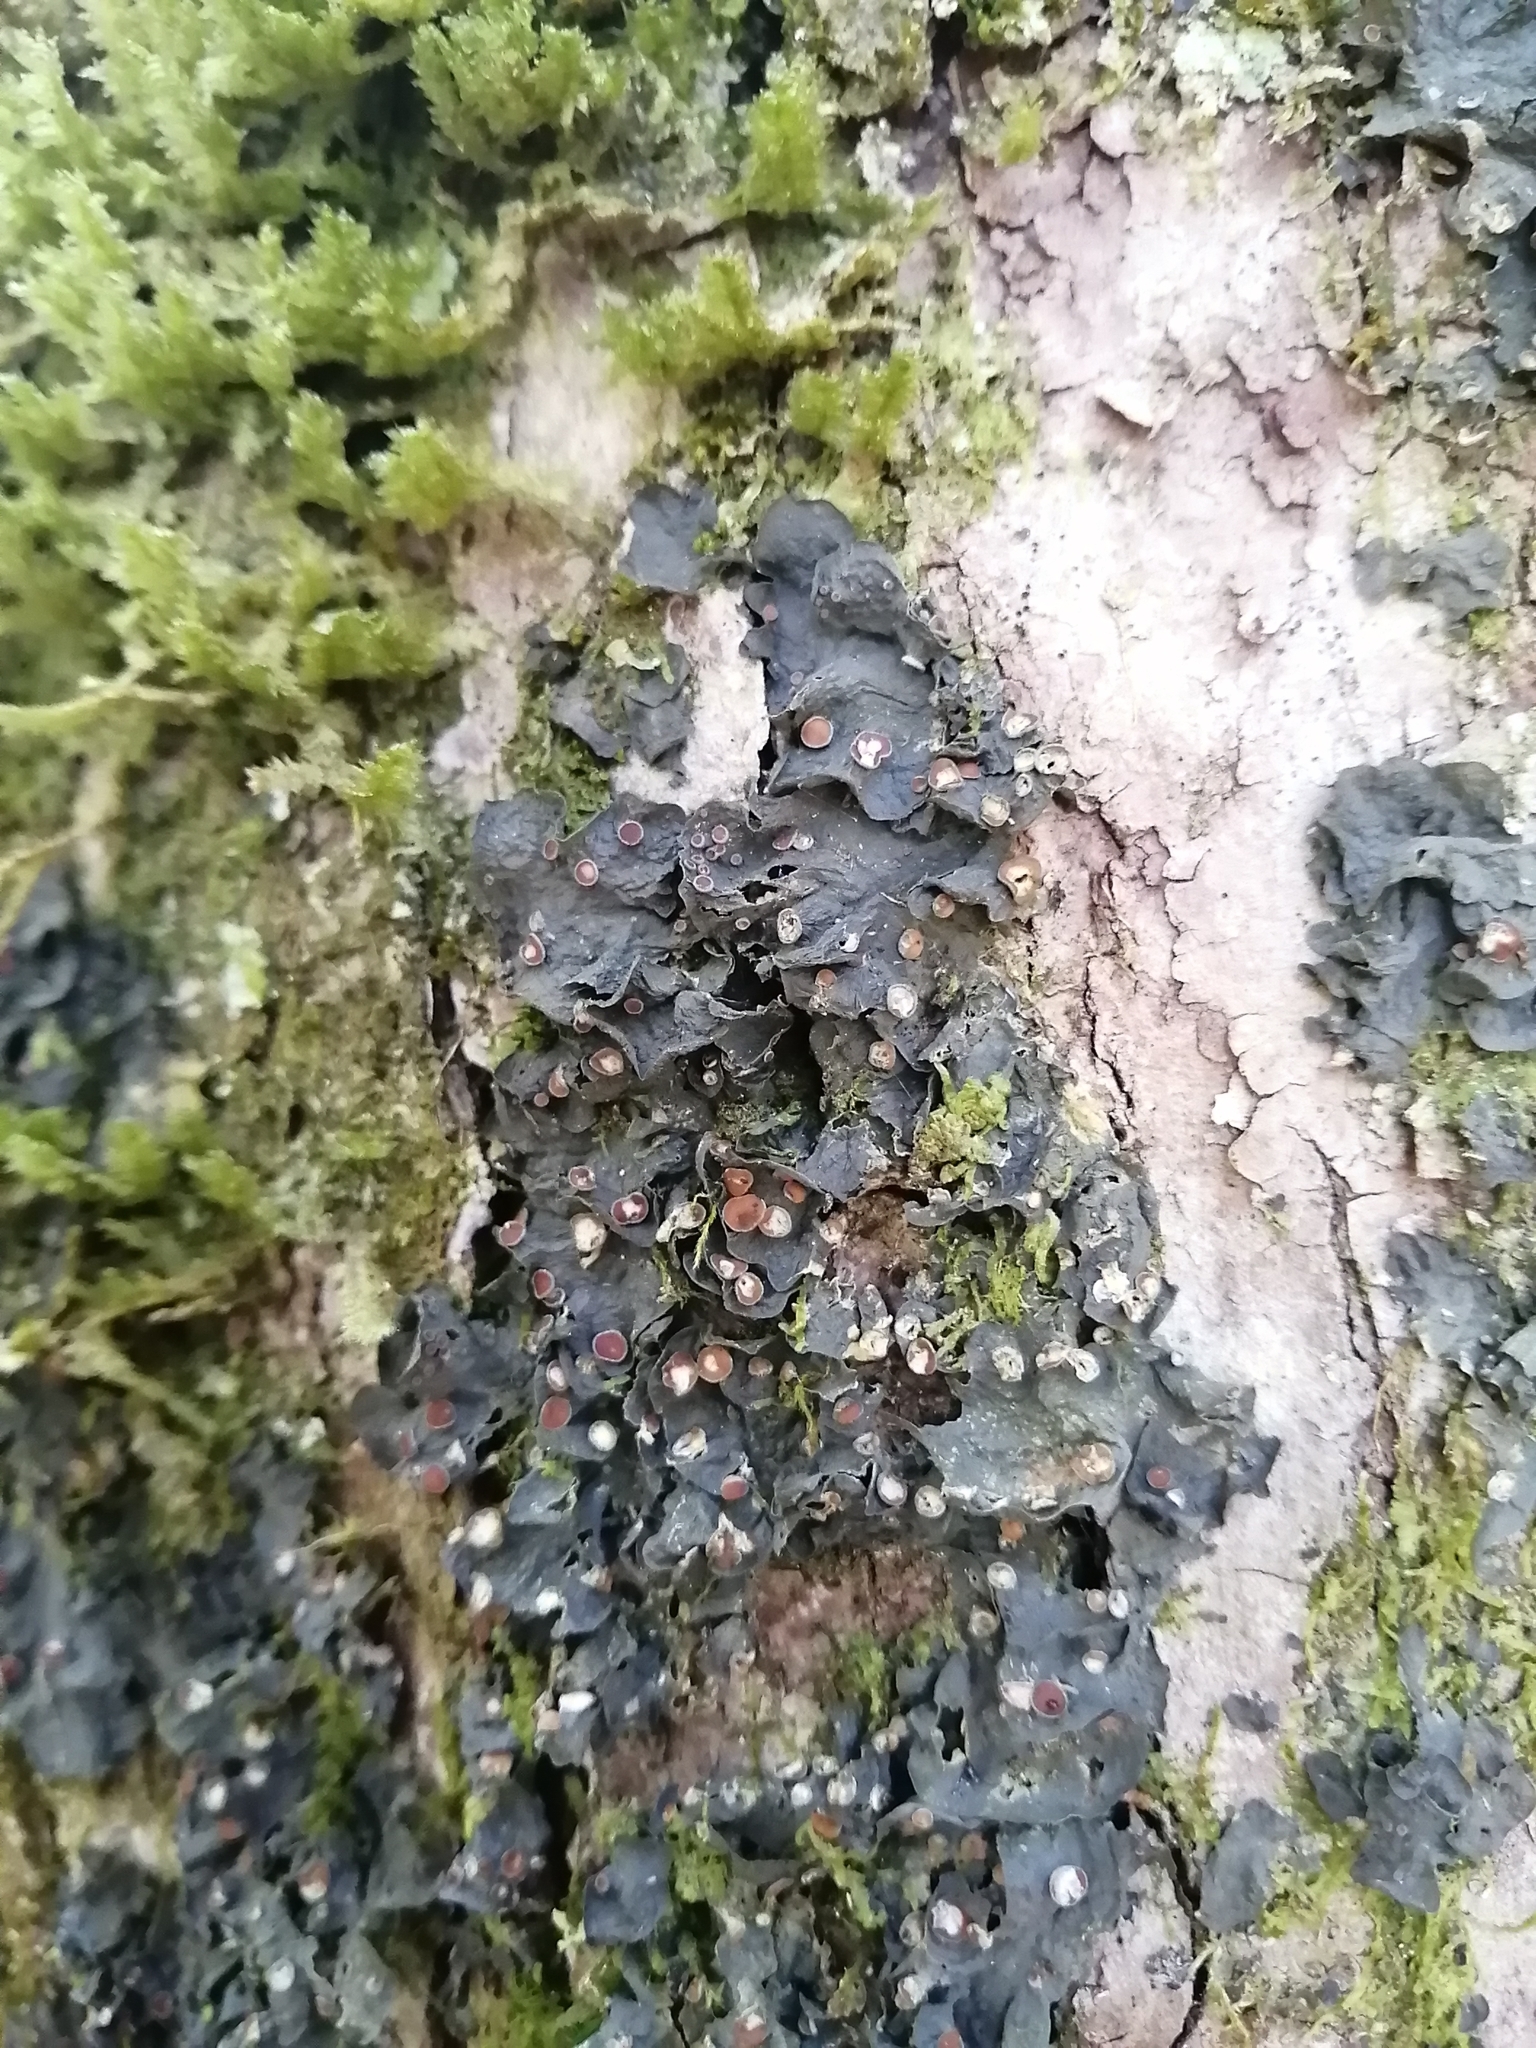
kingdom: Fungi
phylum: Ascomycota
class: Lecanoromycetes
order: Peltigerales
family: Collemataceae
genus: Leptogium
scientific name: Leptogium corticola
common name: Blistered jellyskin lichen
